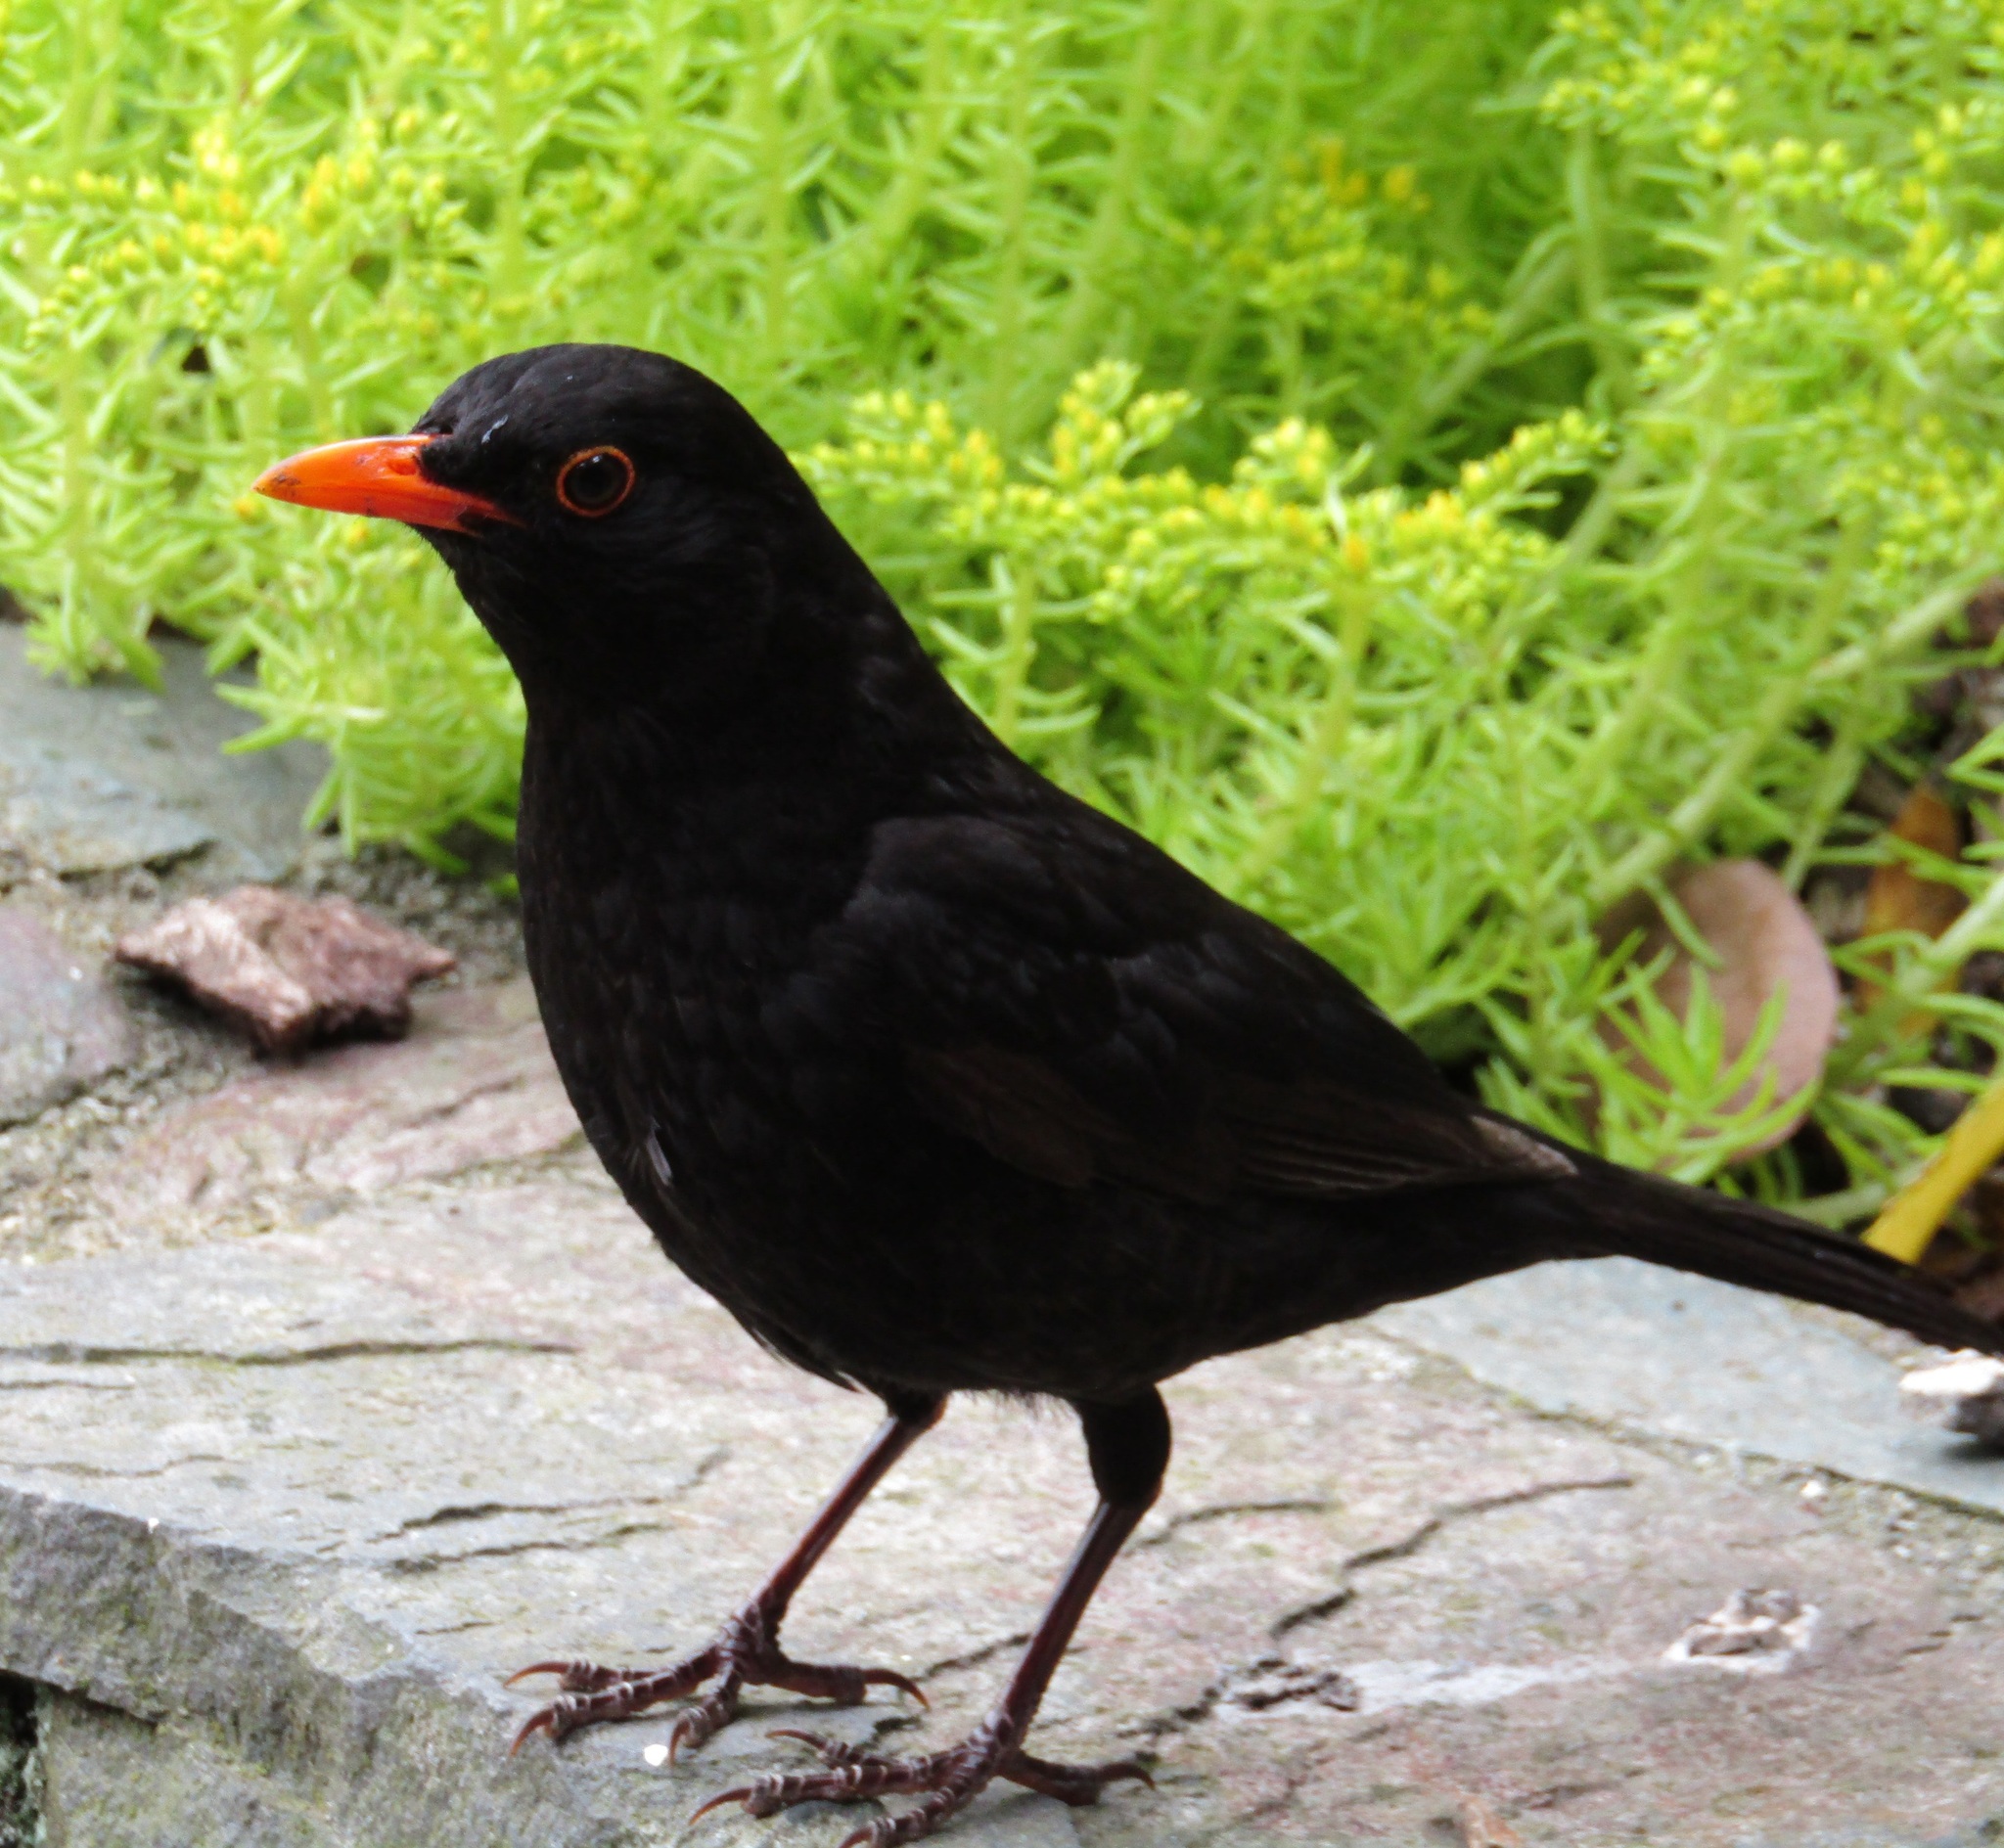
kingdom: Animalia
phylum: Chordata
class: Aves
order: Passeriformes
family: Turdidae
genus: Turdus
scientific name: Turdus merula
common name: Common blackbird
